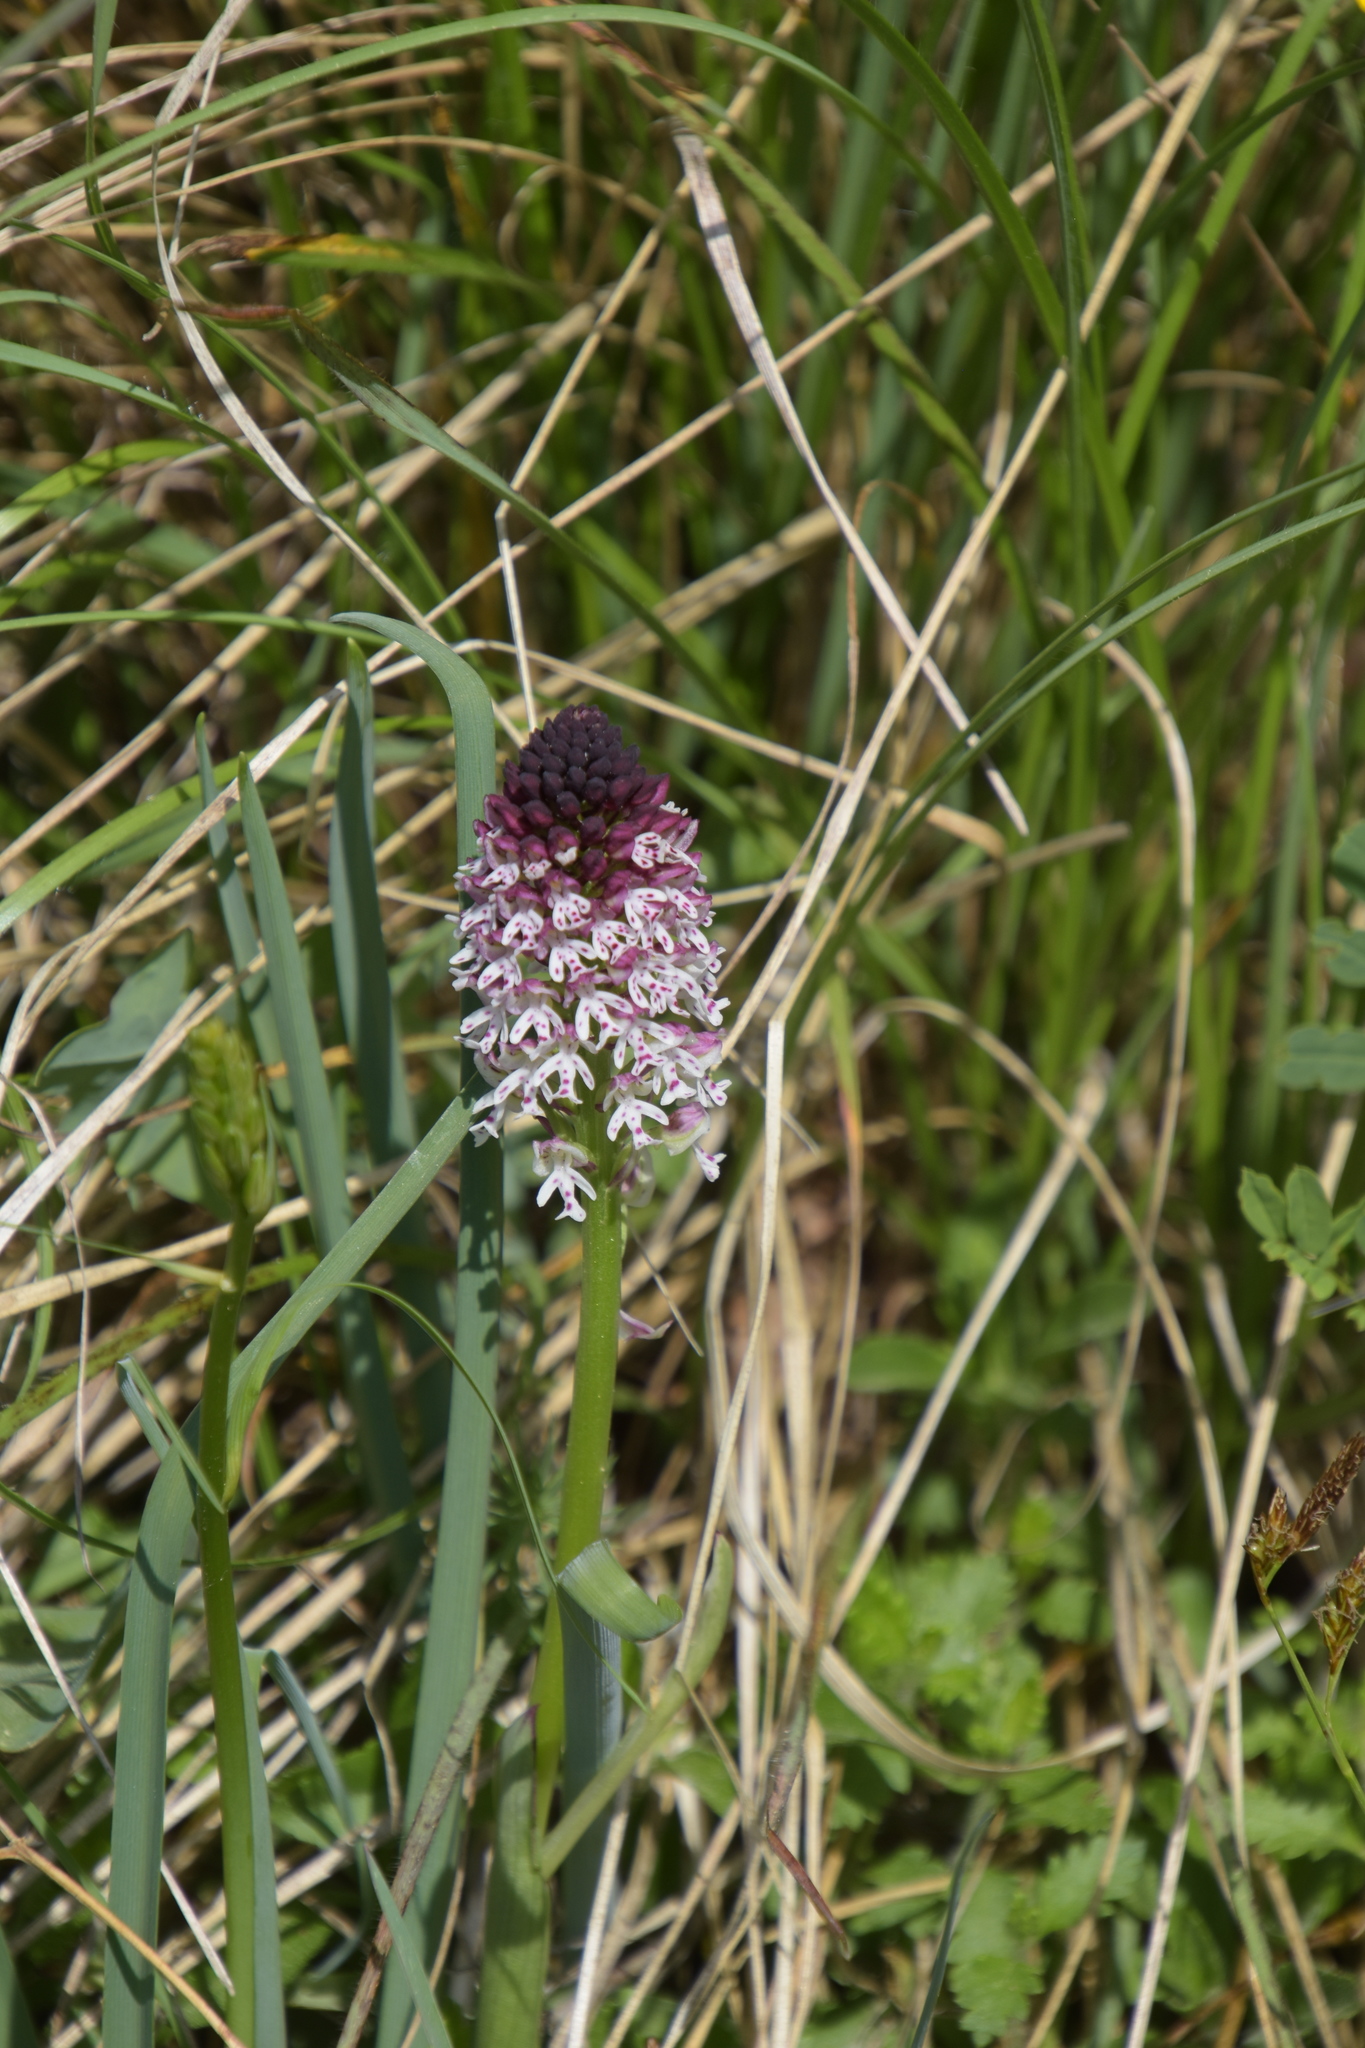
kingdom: Plantae
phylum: Tracheophyta
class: Liliopsida
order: Asparagales
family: Orchidaceae
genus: Neotinea
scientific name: Neotinea ustulata
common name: Burnt orchid
